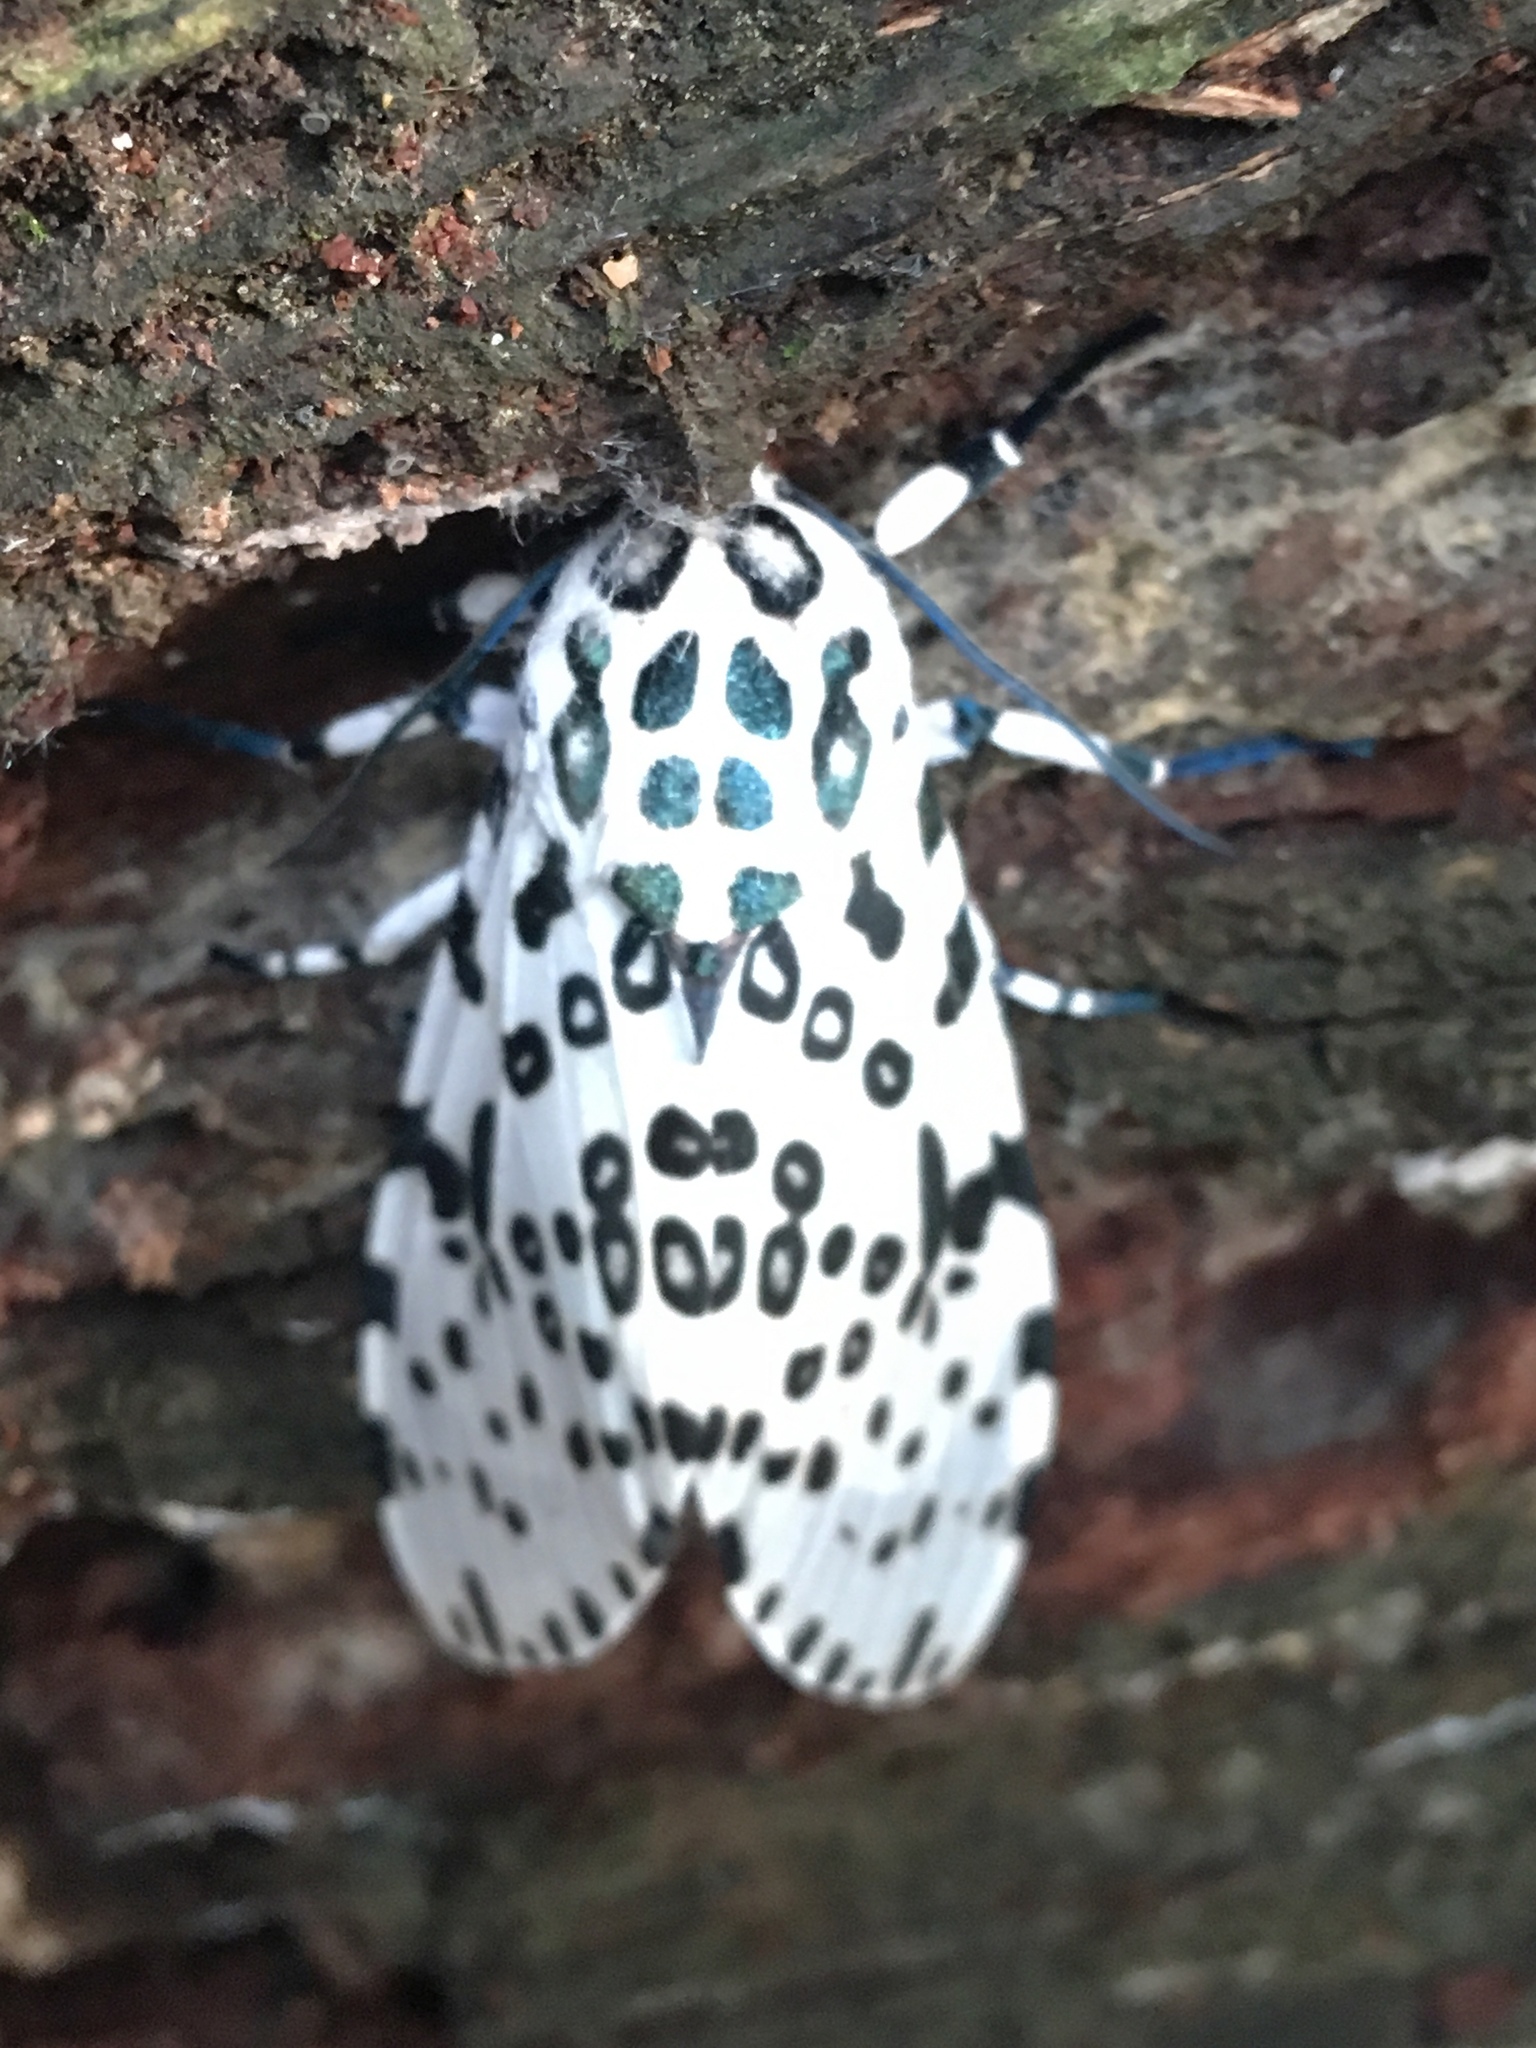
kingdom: Animalia
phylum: Arthropoda
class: Insecta
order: Lepidoptera
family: Erebidae
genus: Hypercompe
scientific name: Hypercompe scribonia
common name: Giant leopard moth
